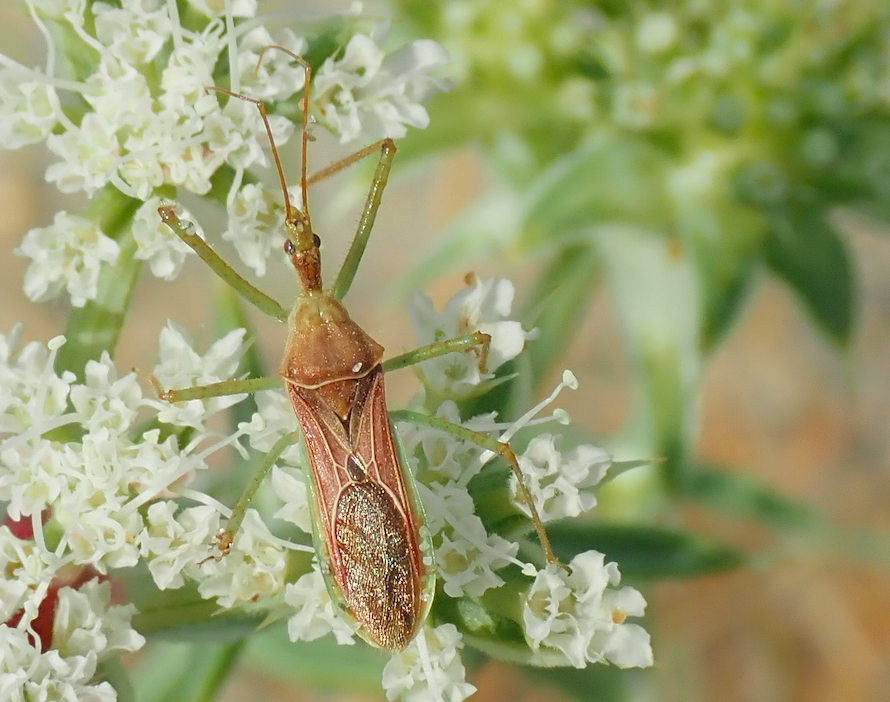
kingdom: Animalia
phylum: Arthropoda
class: Insecta
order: Hemiptera
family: Reduviidae
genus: Zelus
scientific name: Zelus renardii
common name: Assassin bug
